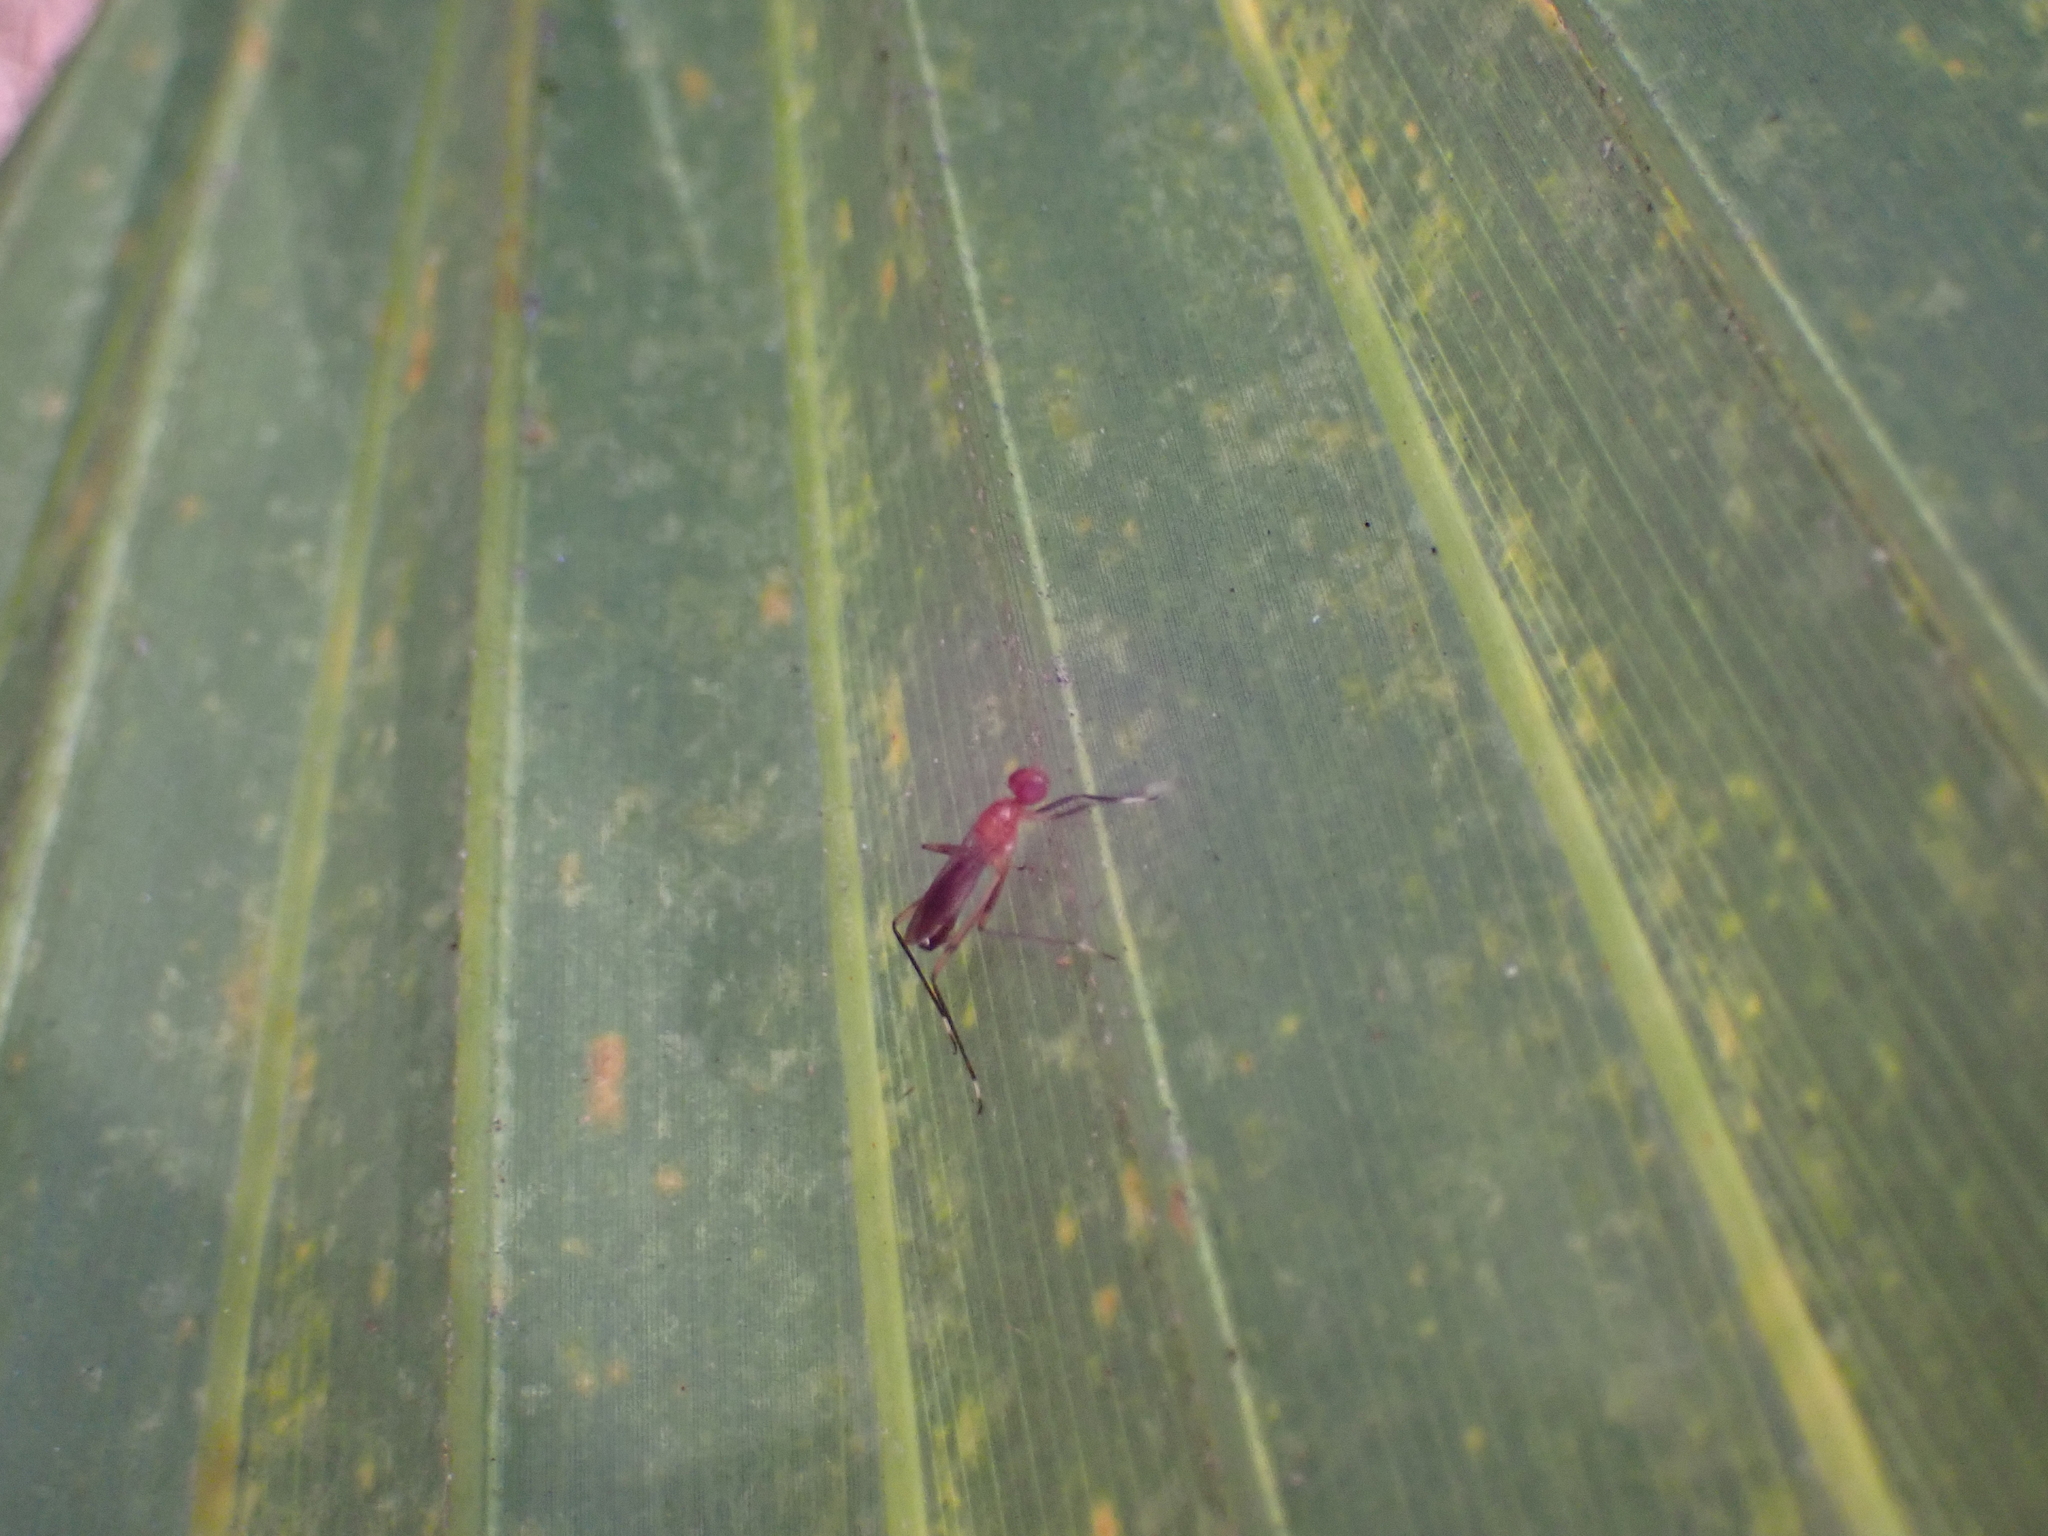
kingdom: Animalia
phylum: Arthropoda
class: Insecta
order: Diptera
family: Micropezidae
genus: Grallipeza
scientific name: Grallipeza nebulosa
